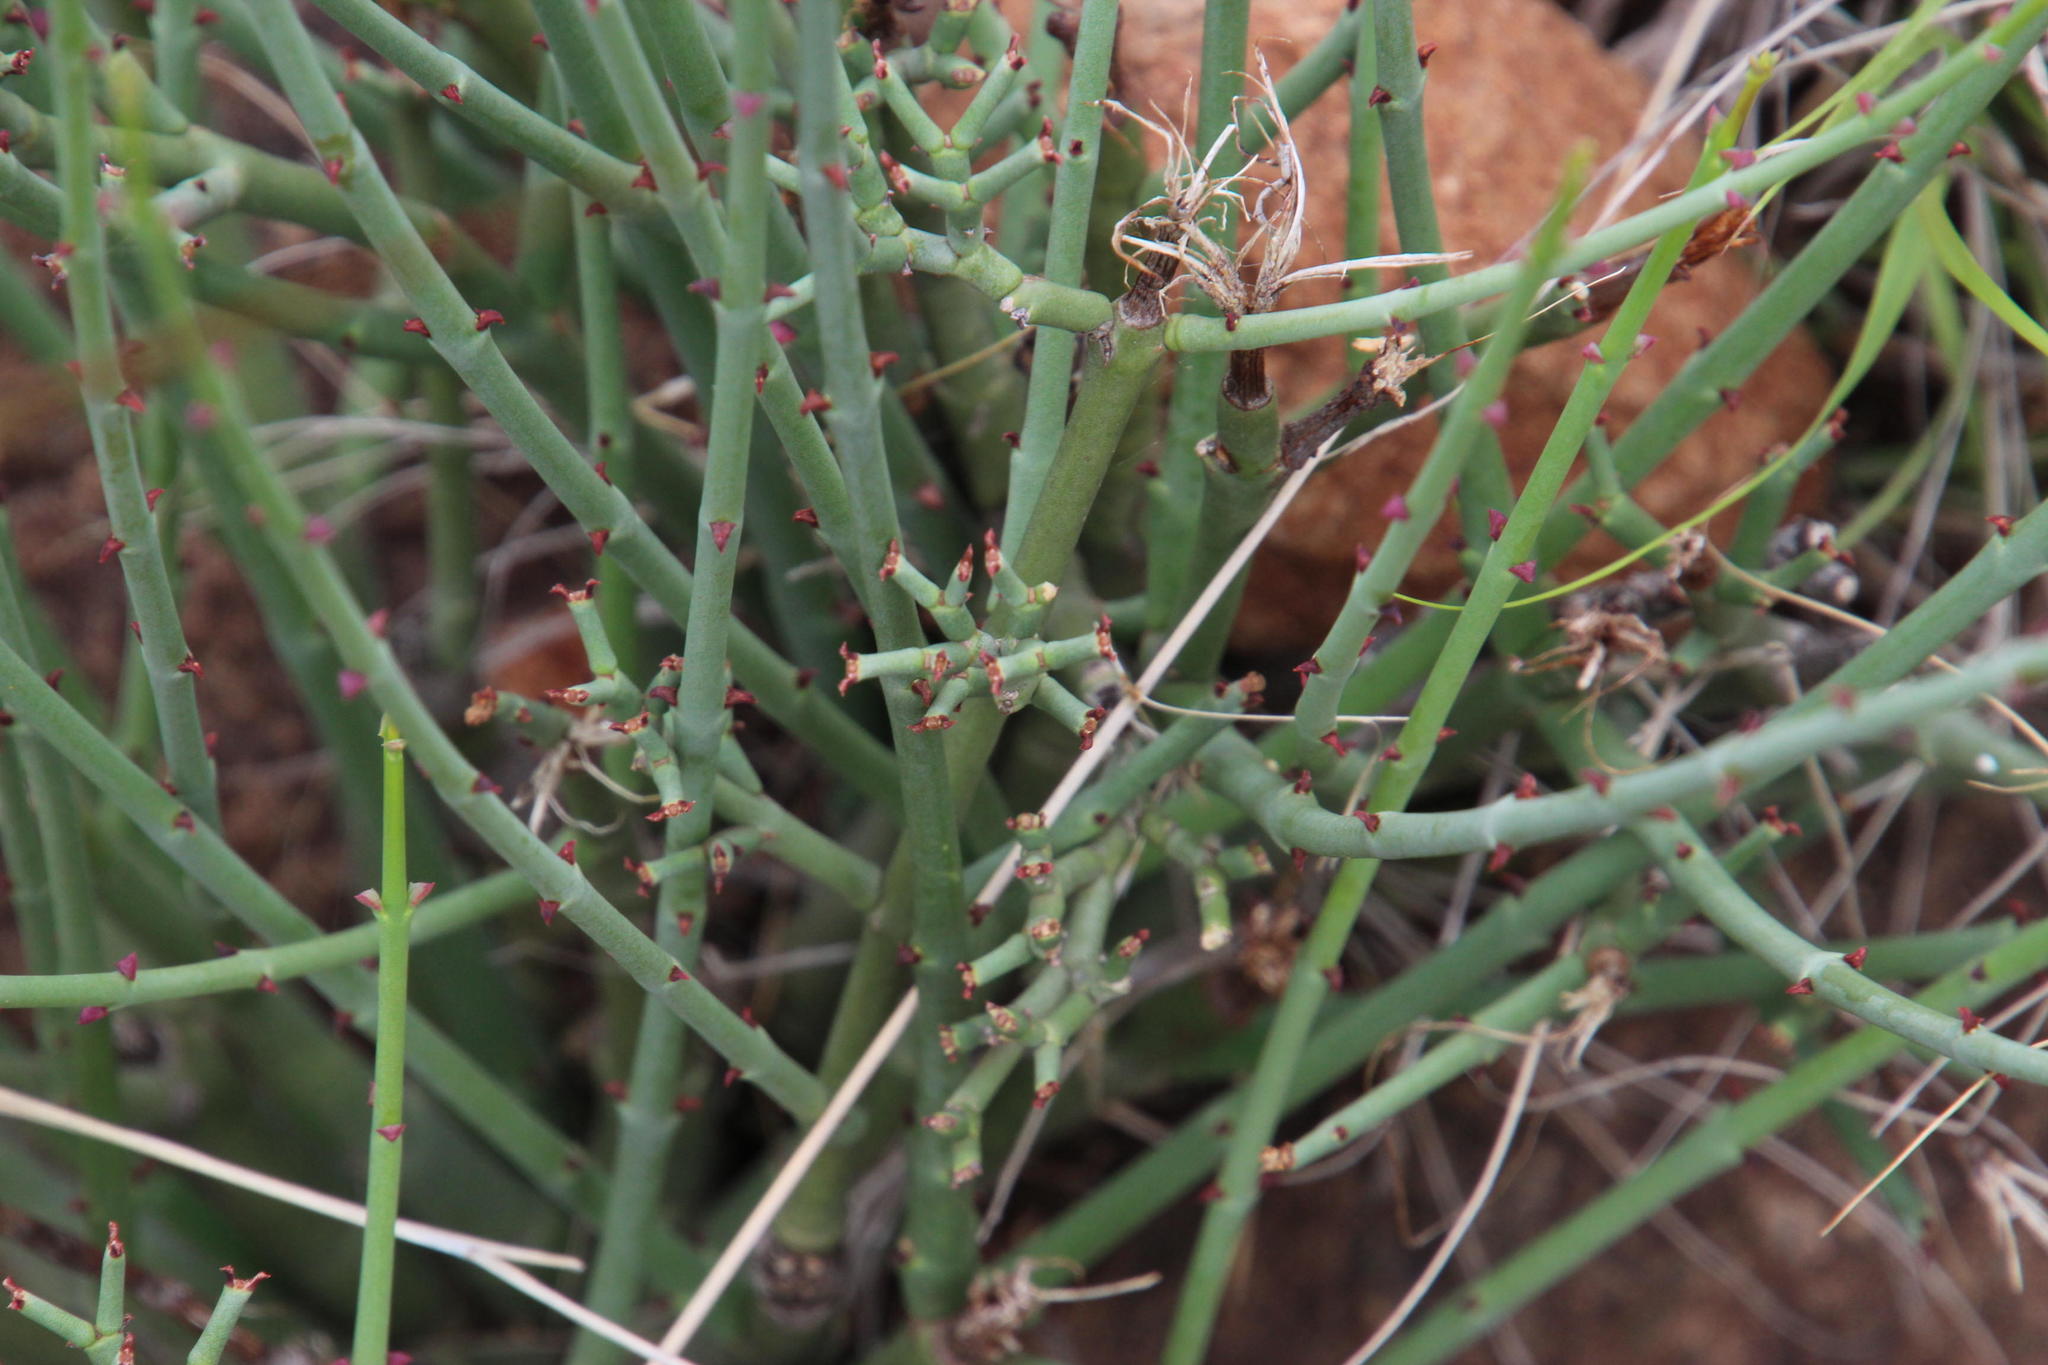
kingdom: Plantae
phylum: Tracheophyta
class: Magnoliopsida
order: Malpighiales
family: Euphorbiaceae
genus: Euphorbia
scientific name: Euphorbia rhombifolia
